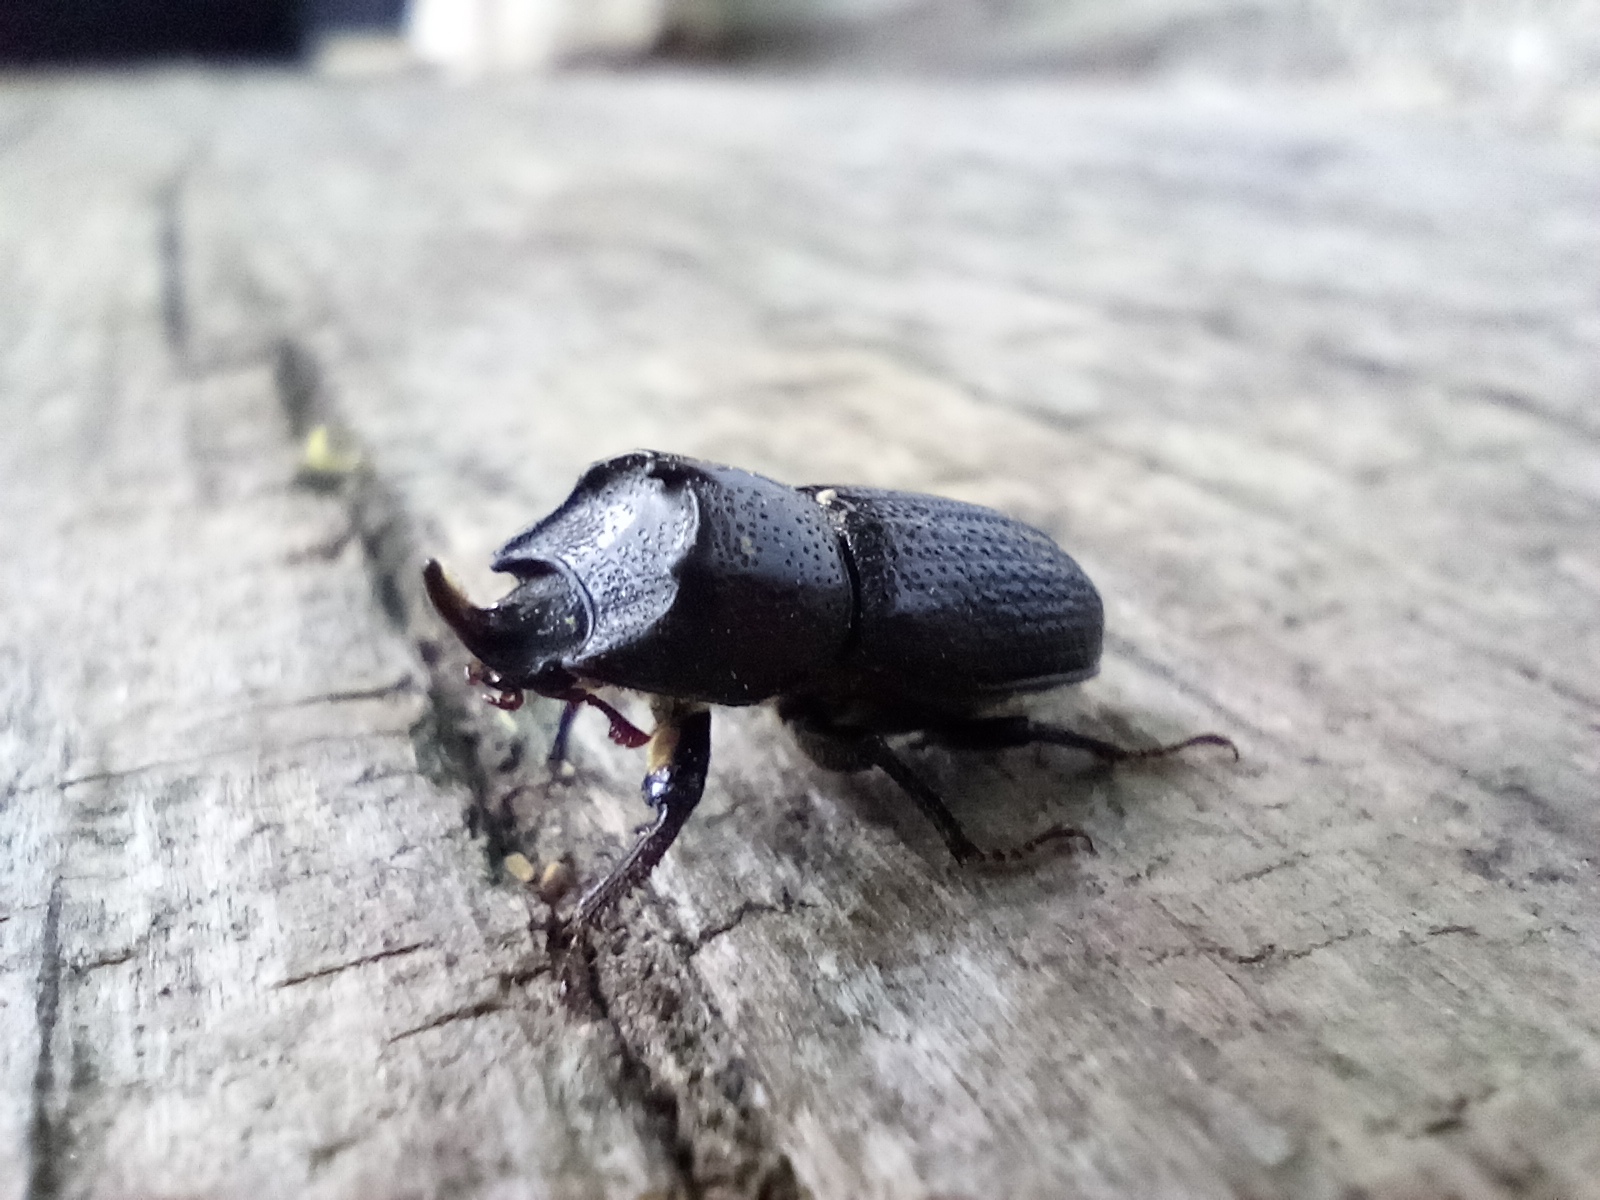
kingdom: Animalia
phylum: Arthropoda
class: Insecta
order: Coleoptera
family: Lucanidae
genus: Sinodendron
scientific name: Sinodendron cylindricum
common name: Rhinoceros beetle
